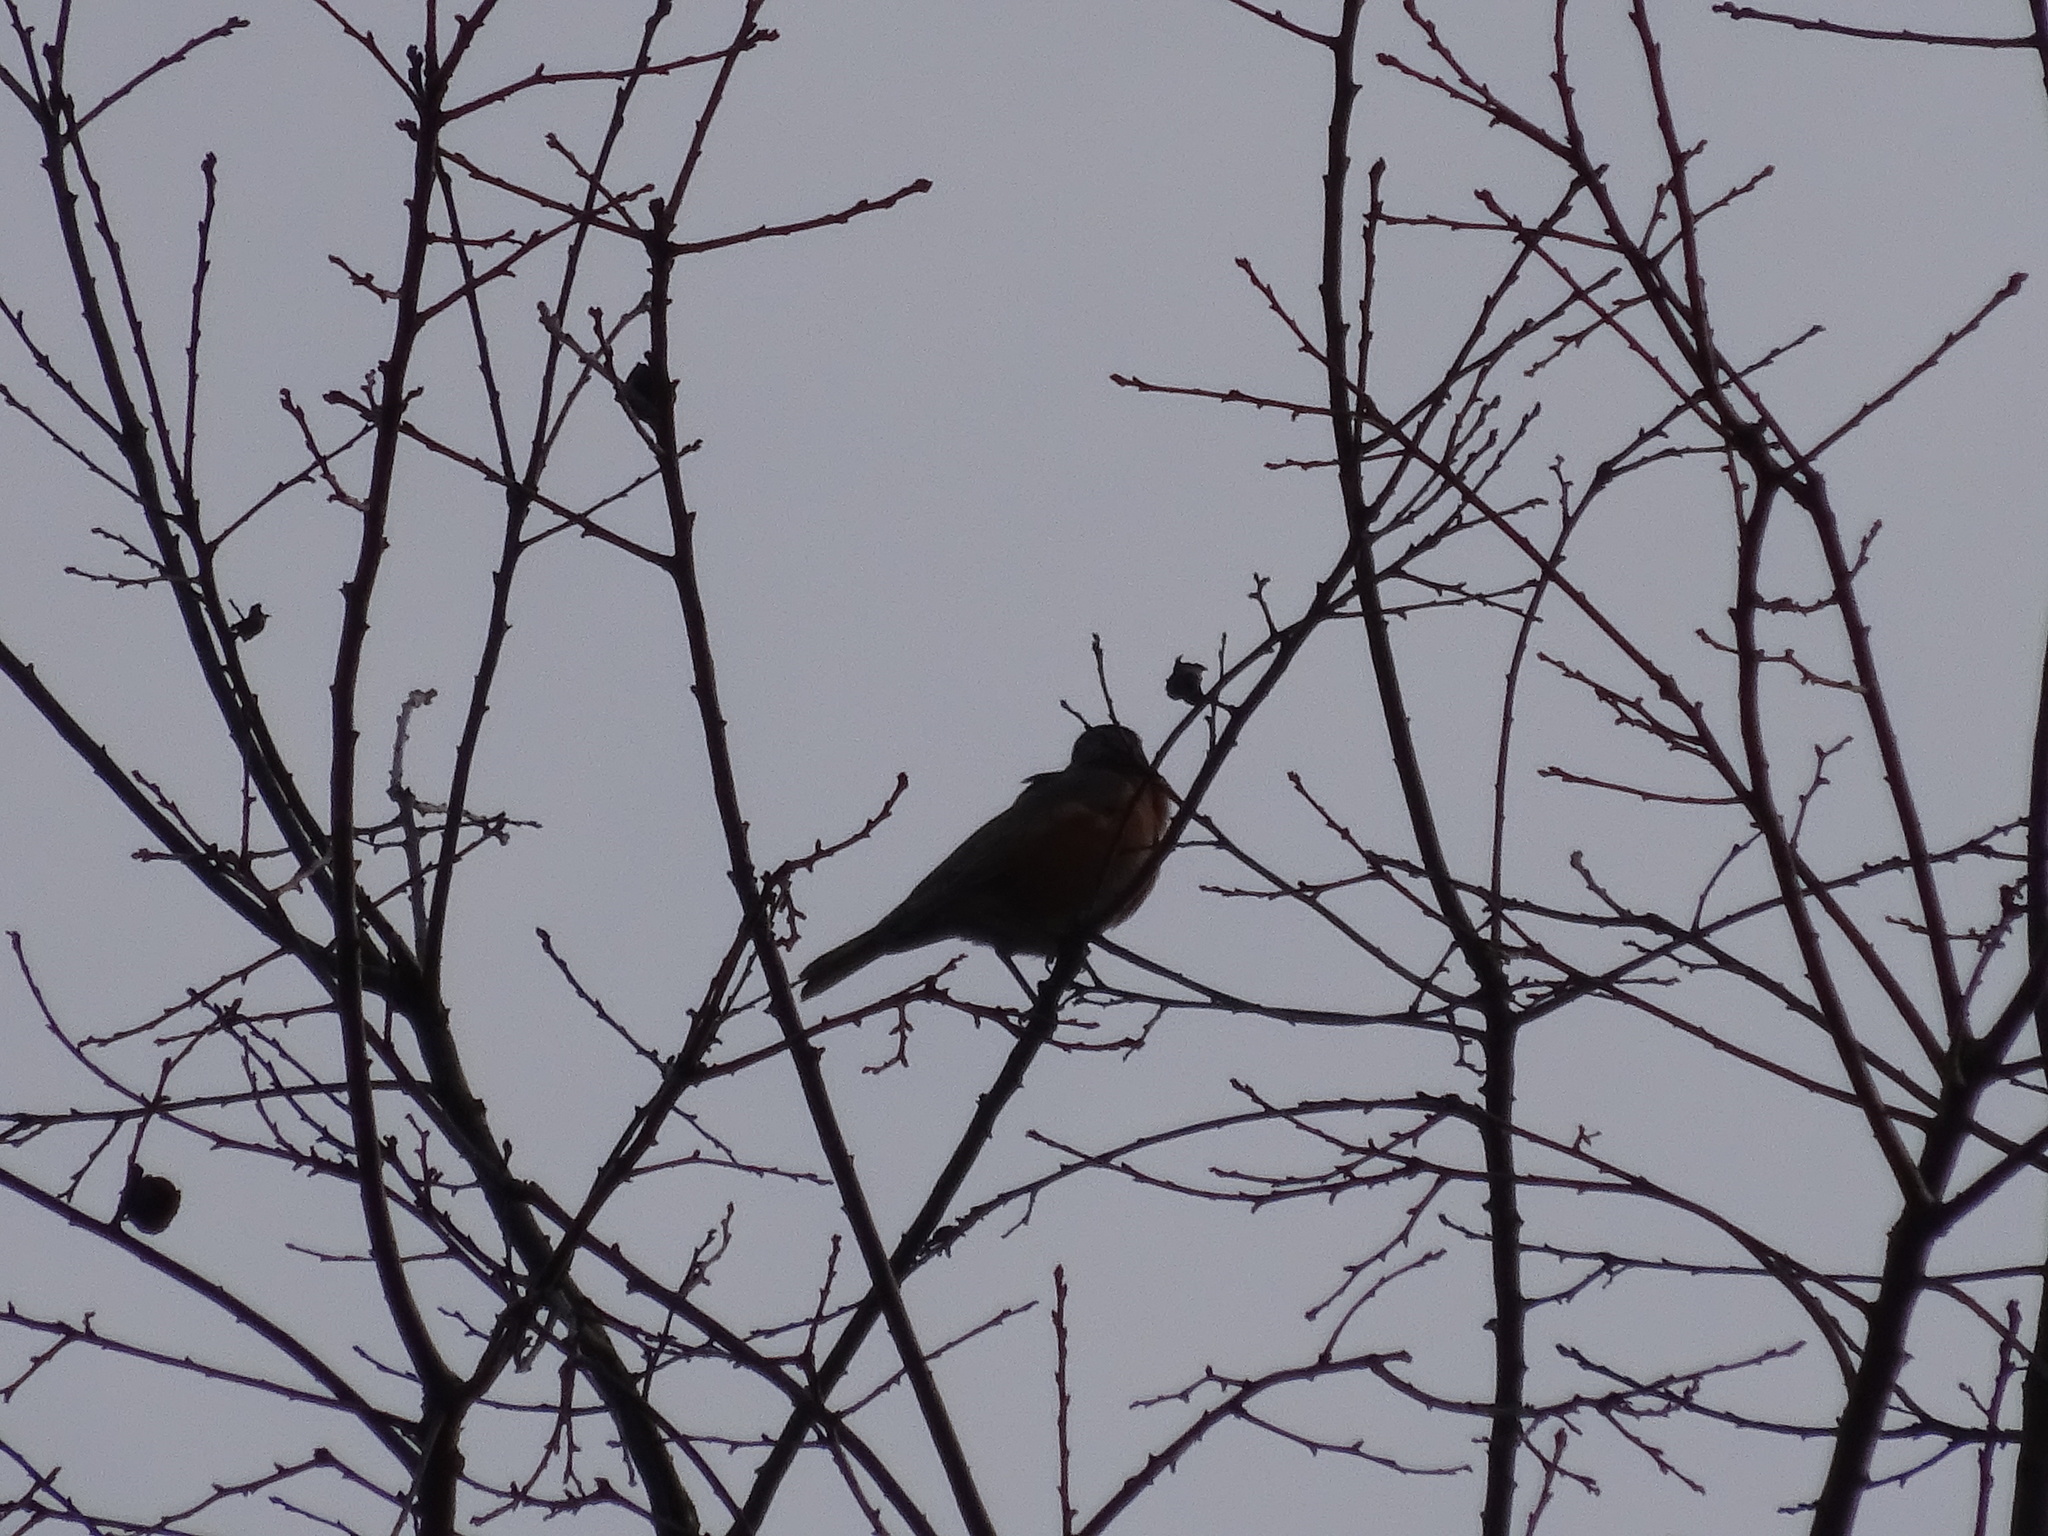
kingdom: Animalia
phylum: Chordata
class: Aves
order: Passeriformes
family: Turdidae
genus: Turdus
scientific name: Turdus migratorius
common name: American robin
